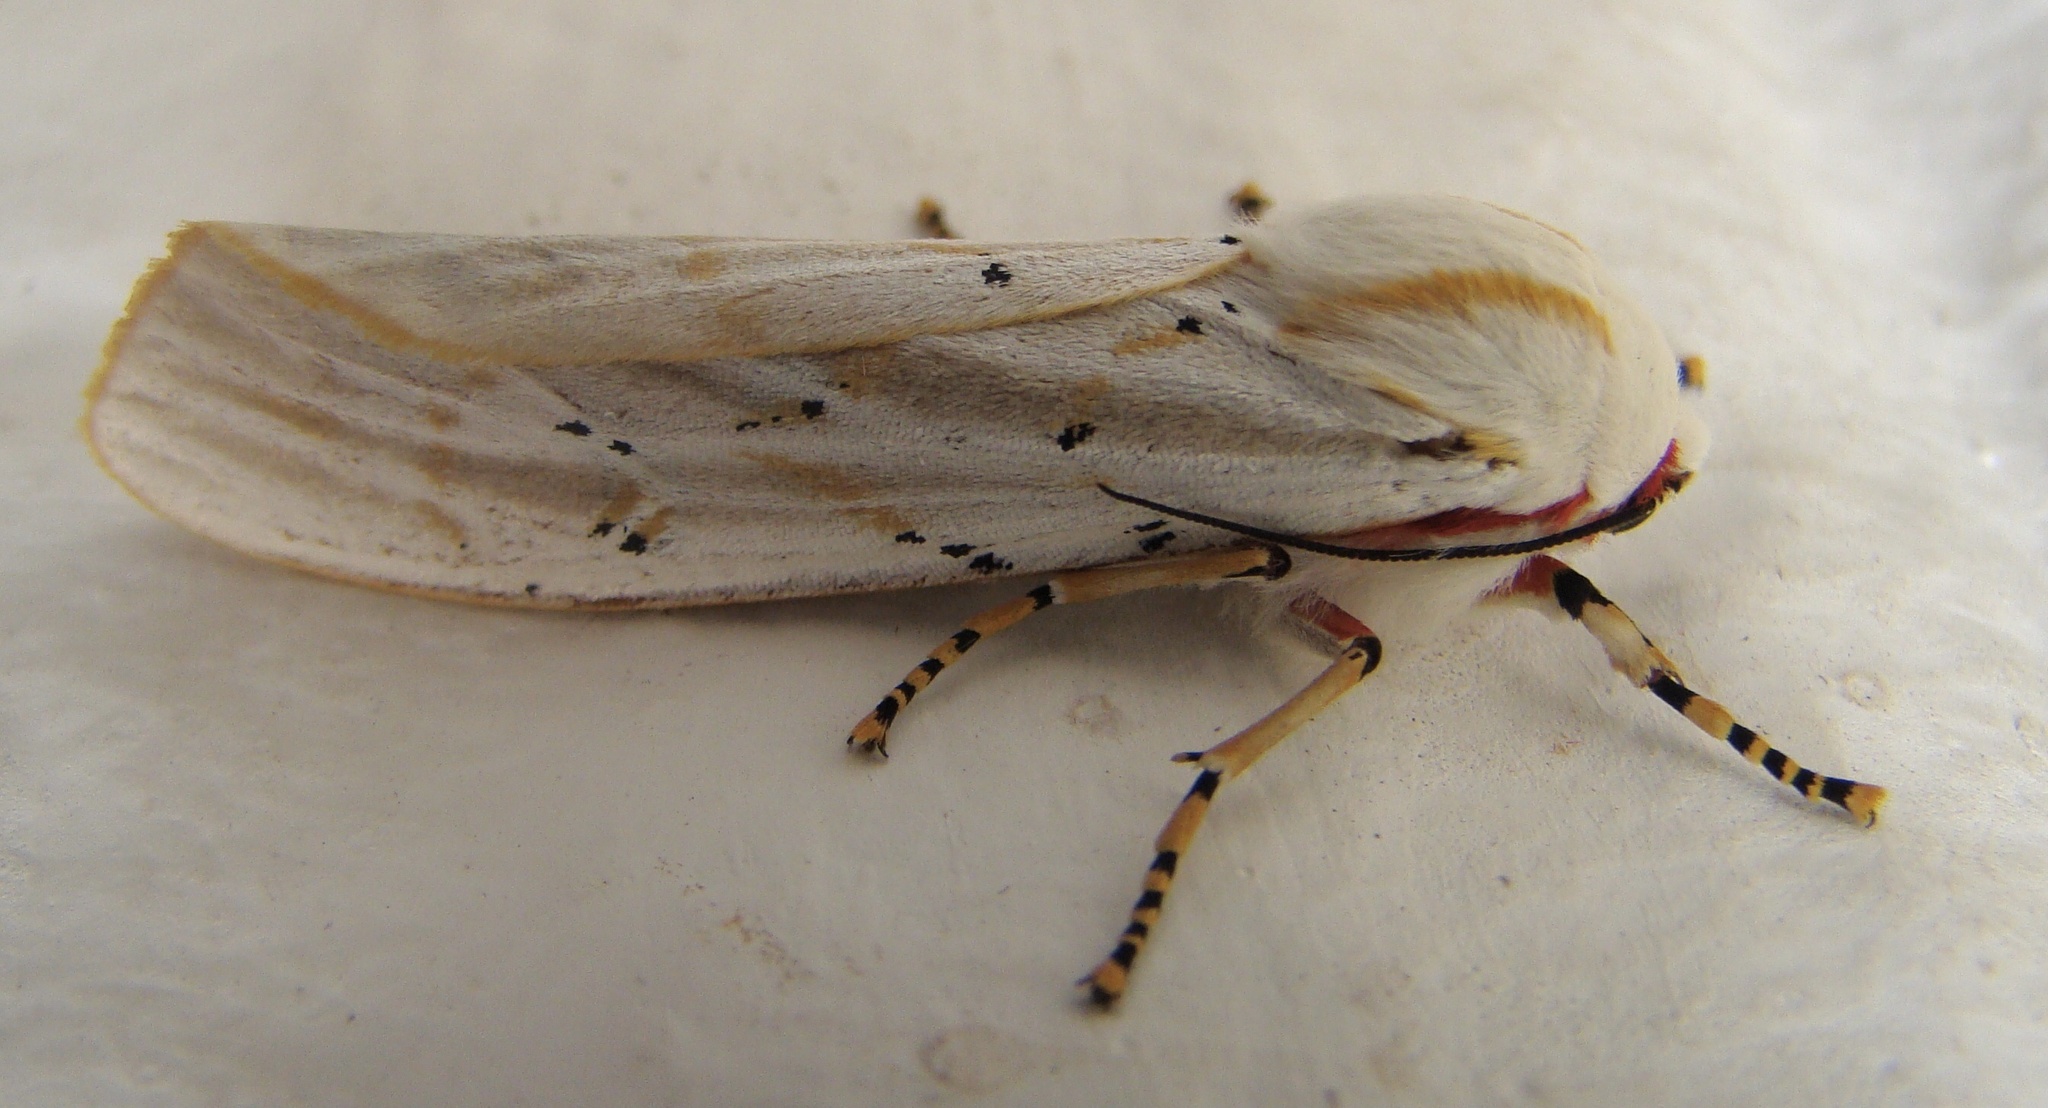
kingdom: Animalia
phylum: Arthropoda
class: Insecta
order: Lepidoptera
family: Erebidae
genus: Rhodogastria
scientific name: Rhodogastria similis
